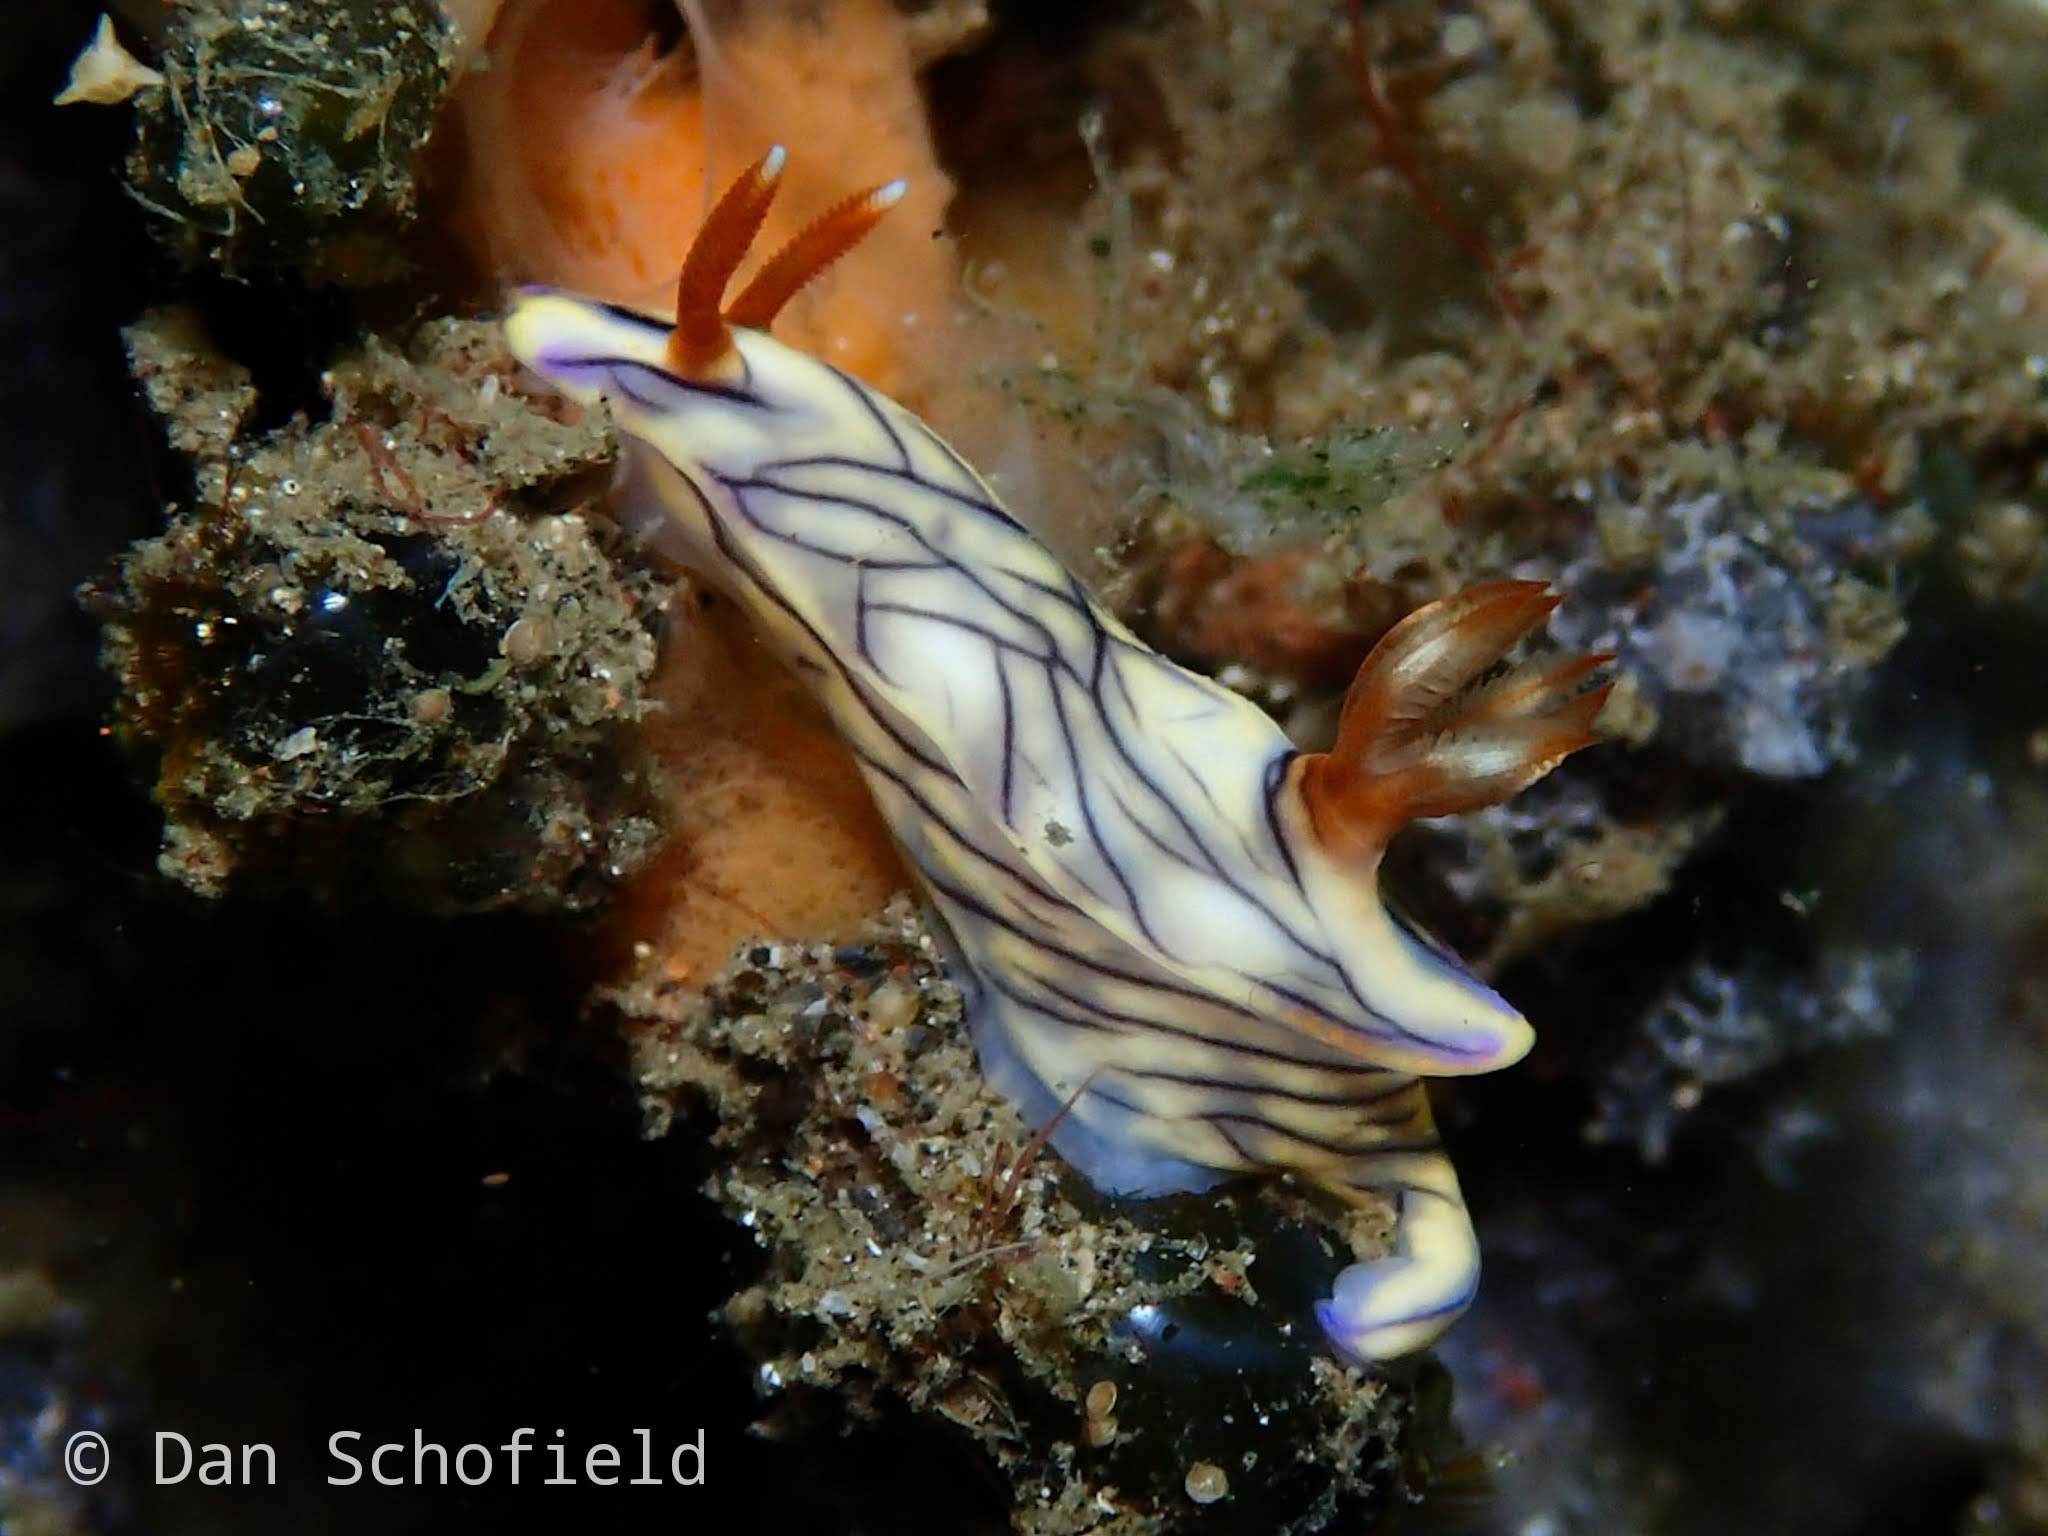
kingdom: Animalia
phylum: Mollusca
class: Gastropoda
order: Nudibranchia
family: Chromodorididae
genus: Hypselodoris
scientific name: Hypselodoris zephyra
